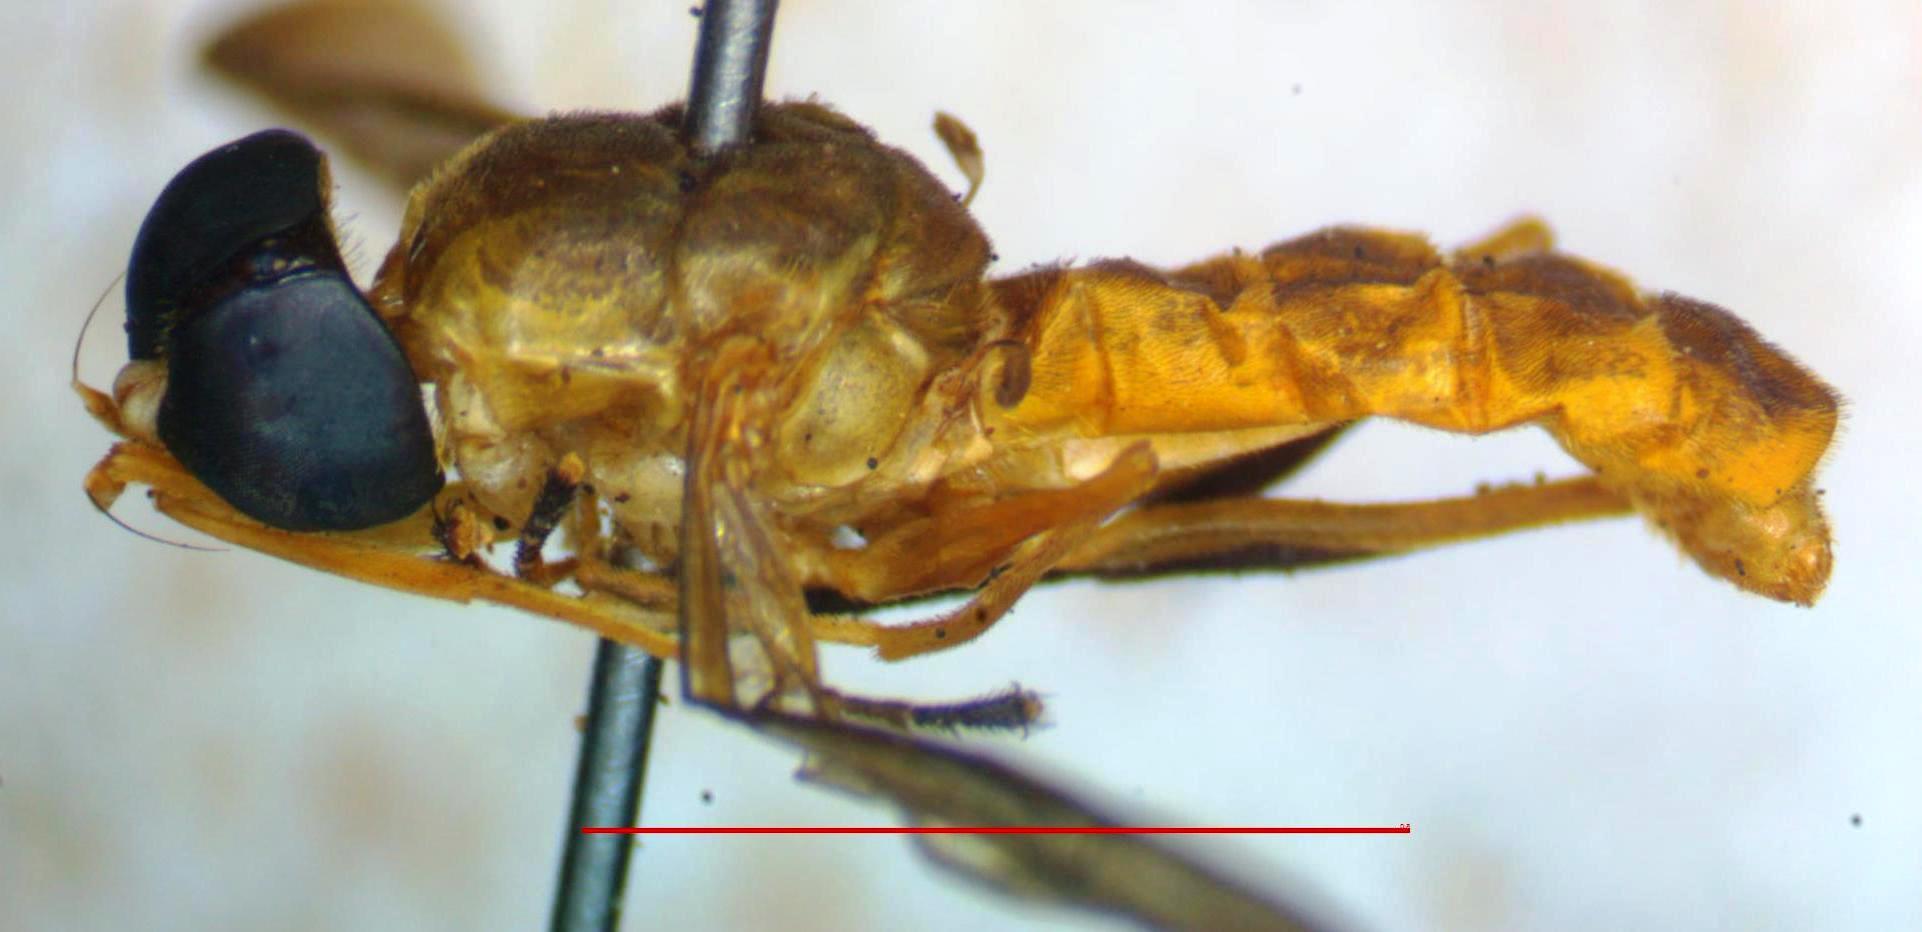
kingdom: Animalia
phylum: Arthropoda
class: Insecta
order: Diptera
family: Stratiomyidae
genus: Ptecticus
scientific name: Ptecticus nigrifrons
